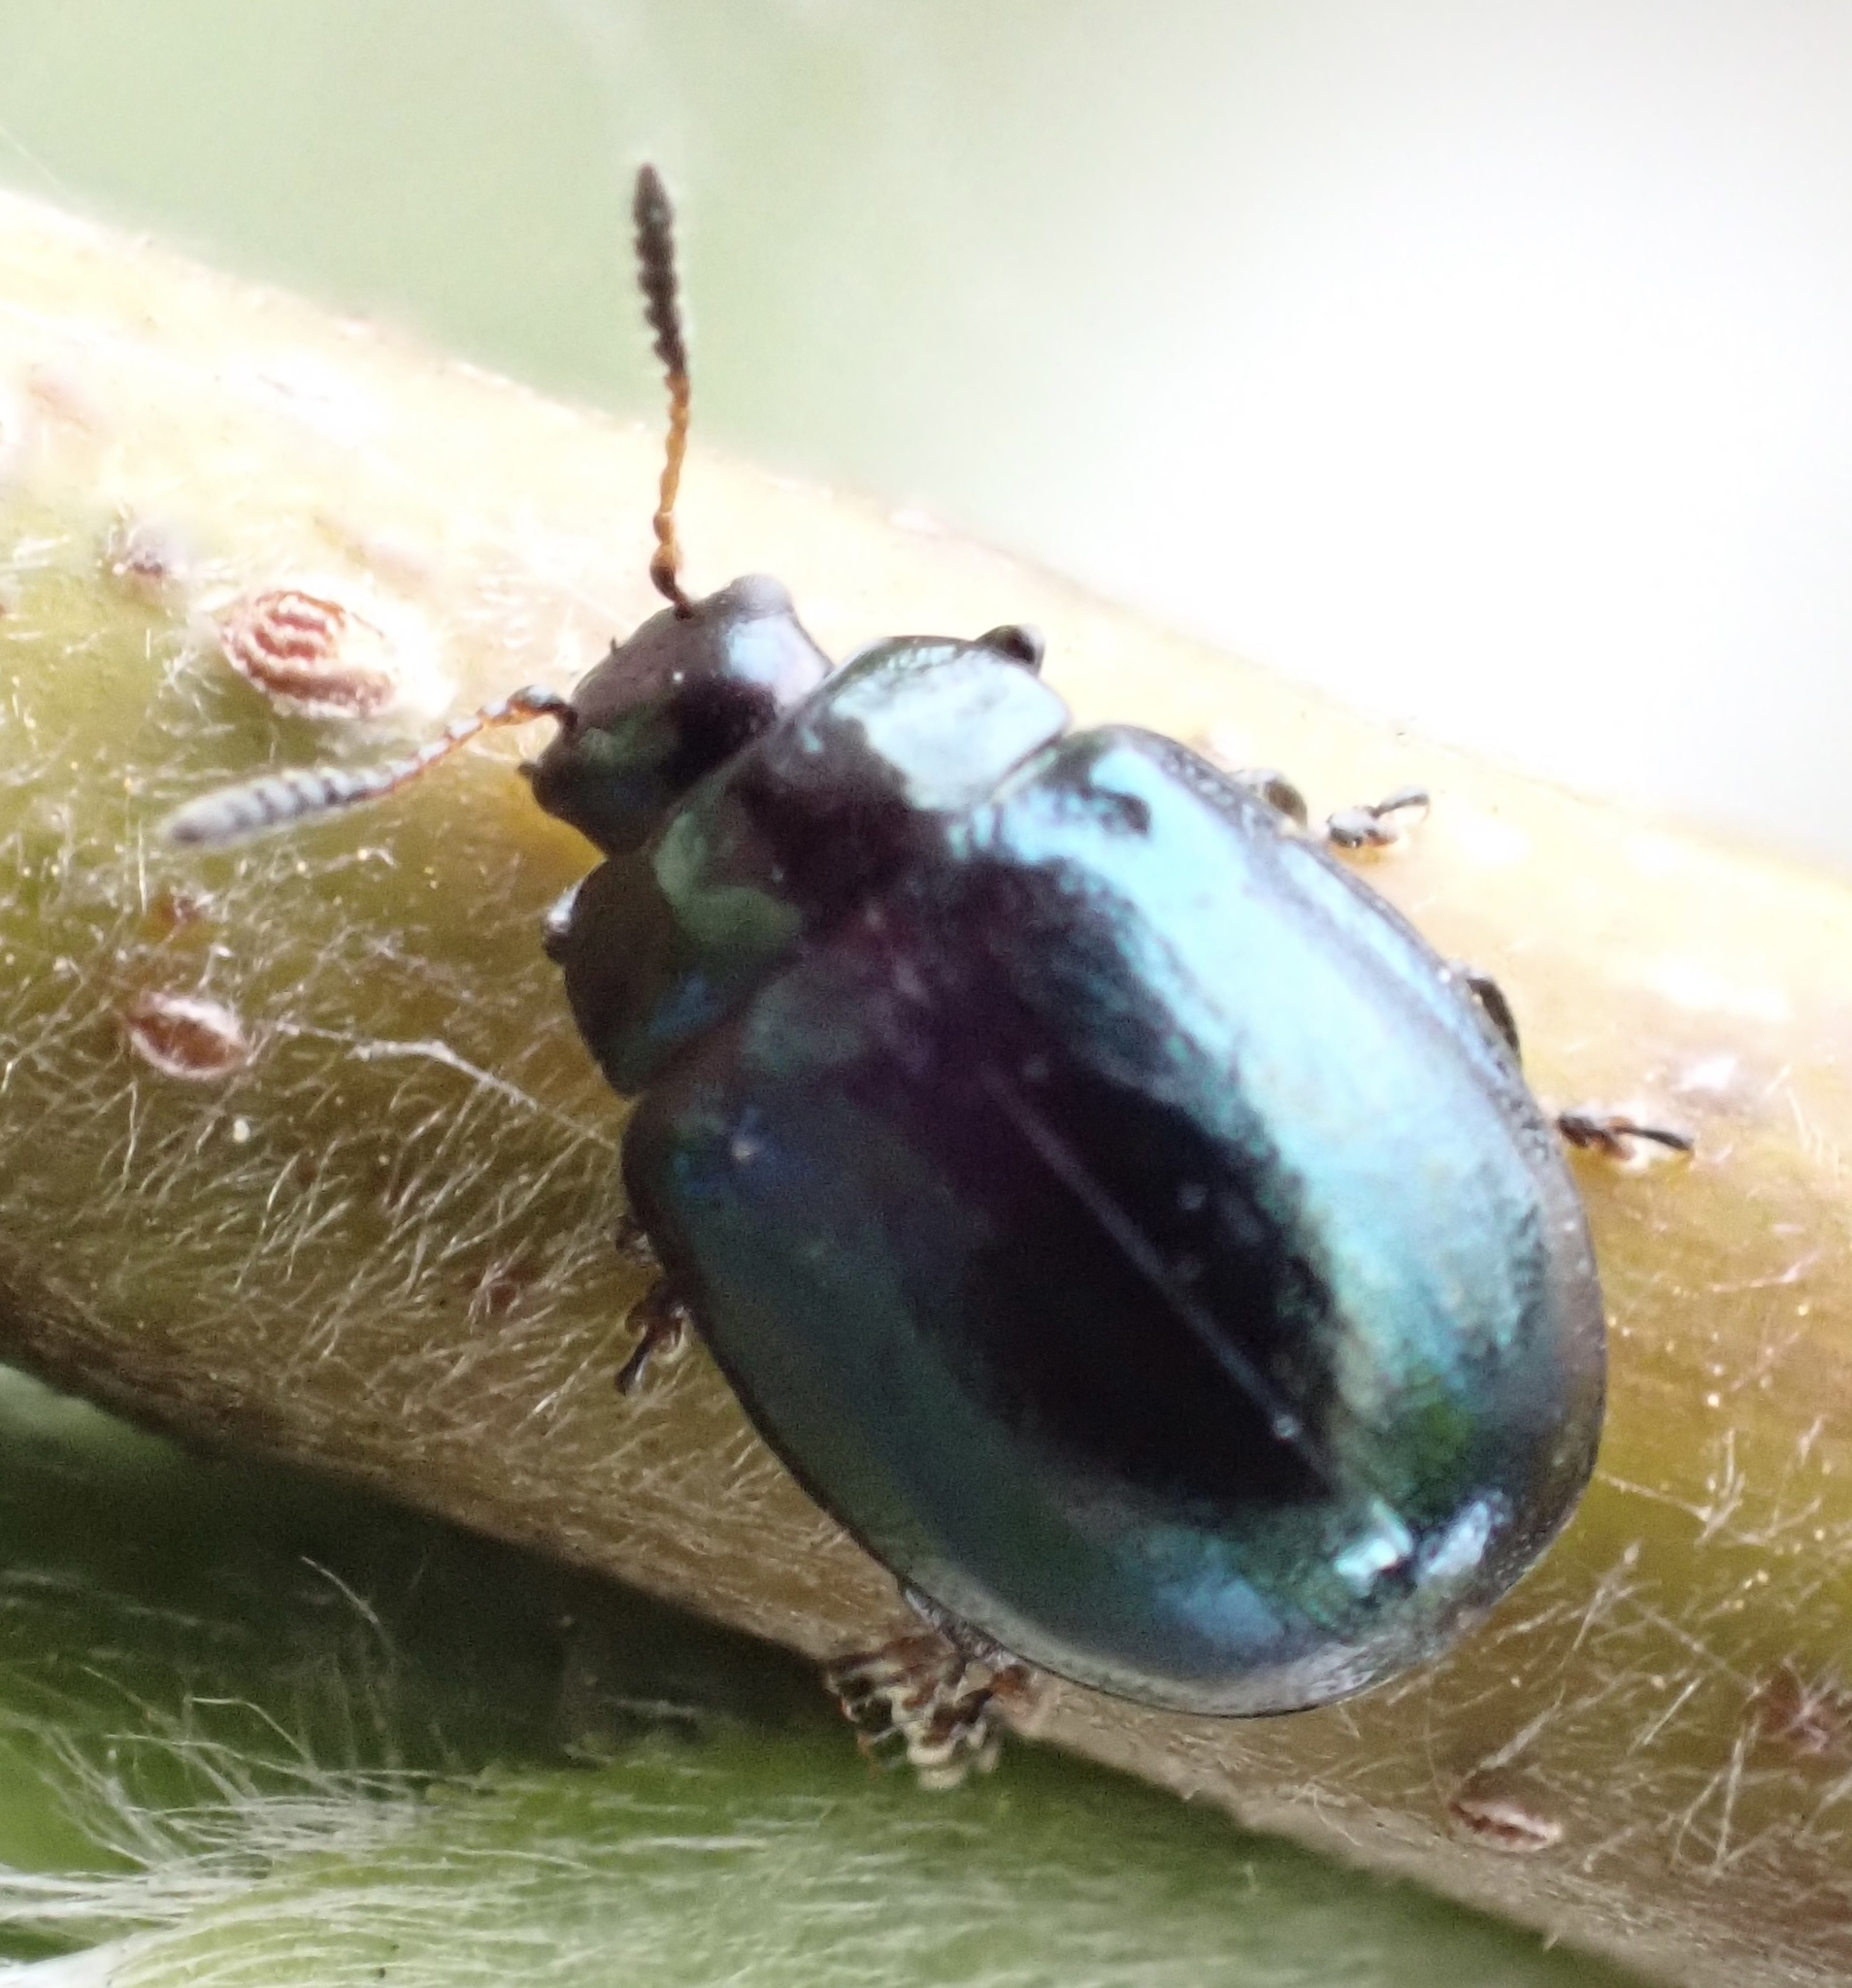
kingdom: Animalia
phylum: Arthropoda
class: Insecta
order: Coleoptera
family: Chrysomelidae
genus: Plagiodera
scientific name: Plagiodera versicolora
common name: Imported willow leaf beetle
